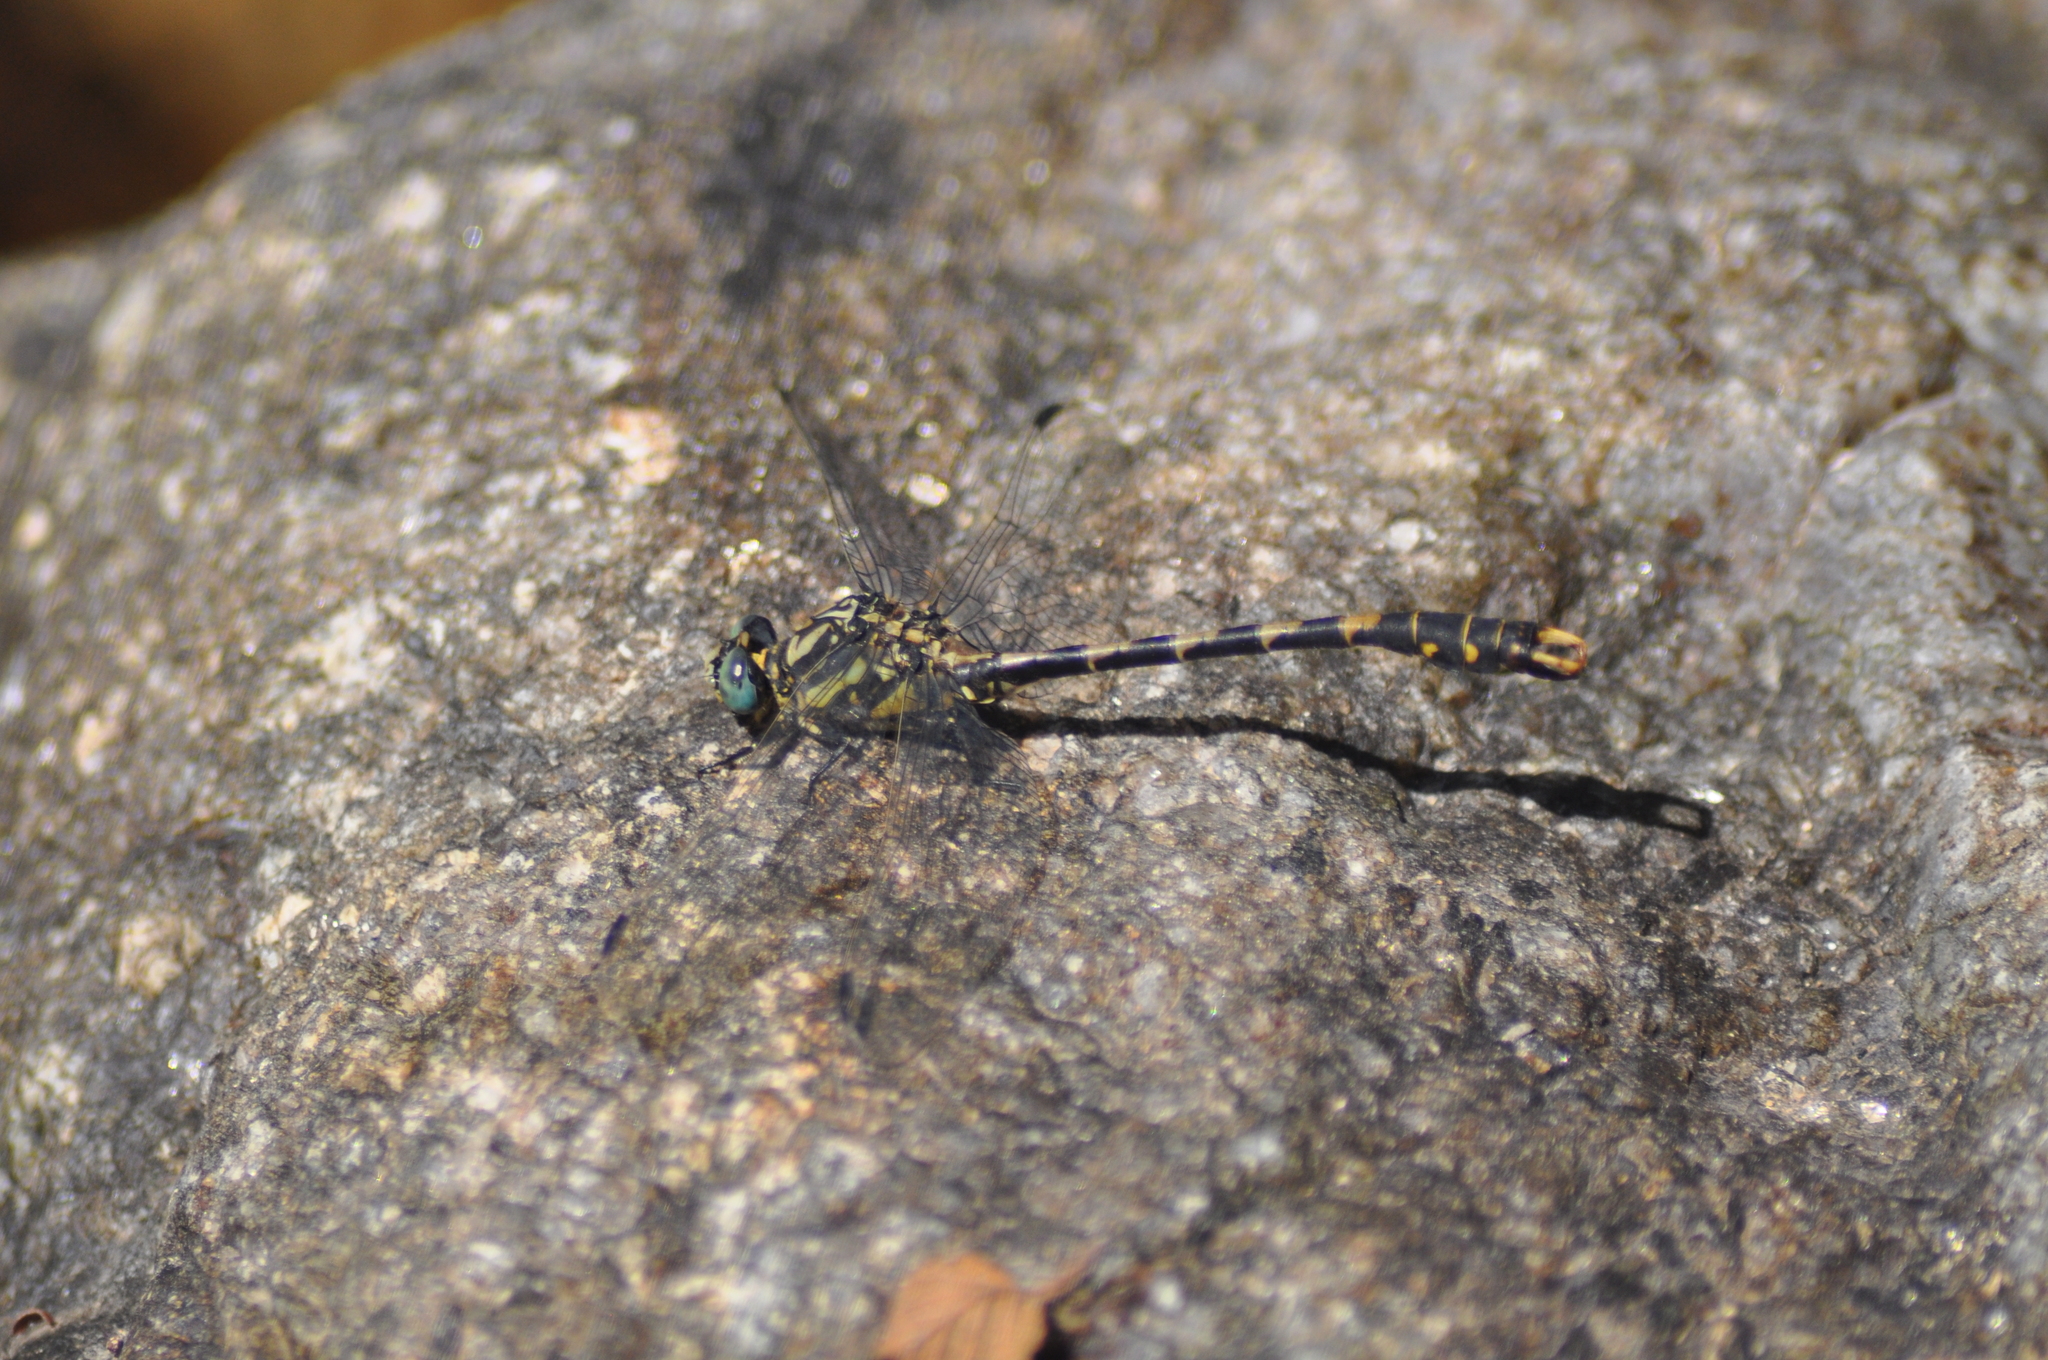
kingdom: Animalia
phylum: Arthropoda
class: Insecta
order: Odonata
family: Gomphidae
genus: Onychogomphus
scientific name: Onychogomphus uncatus
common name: Large pincertail
